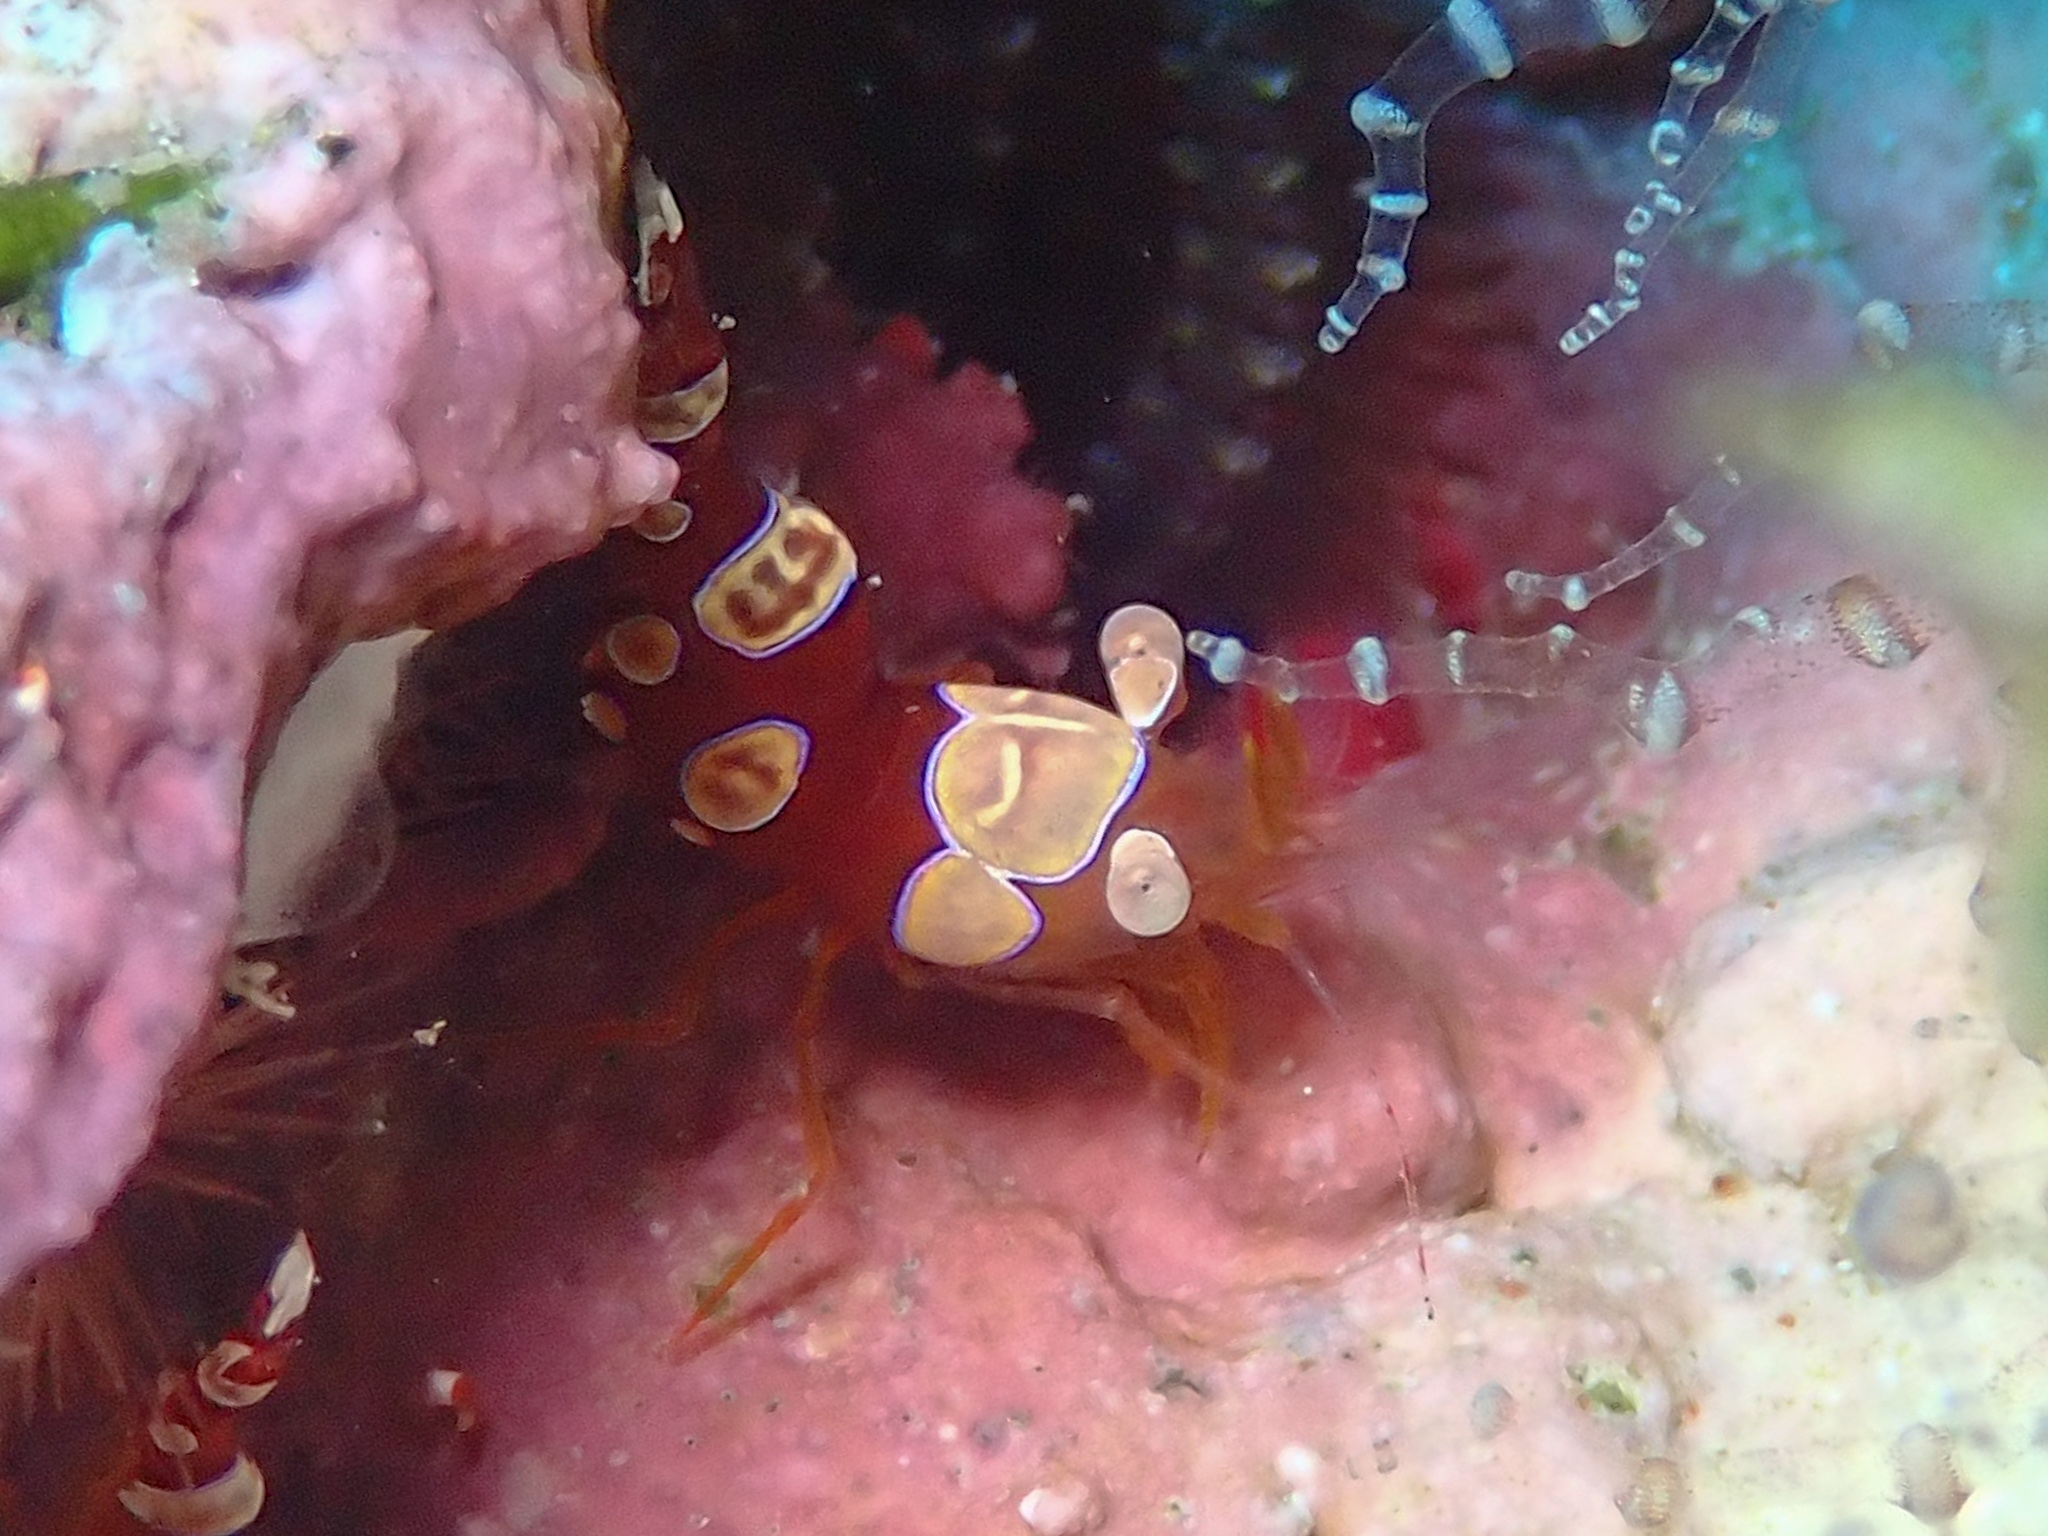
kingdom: Animalia
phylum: Arthropoda
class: Malacostraca
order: Decapoda
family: Thoridae
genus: Thor
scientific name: Thor dicaprio
